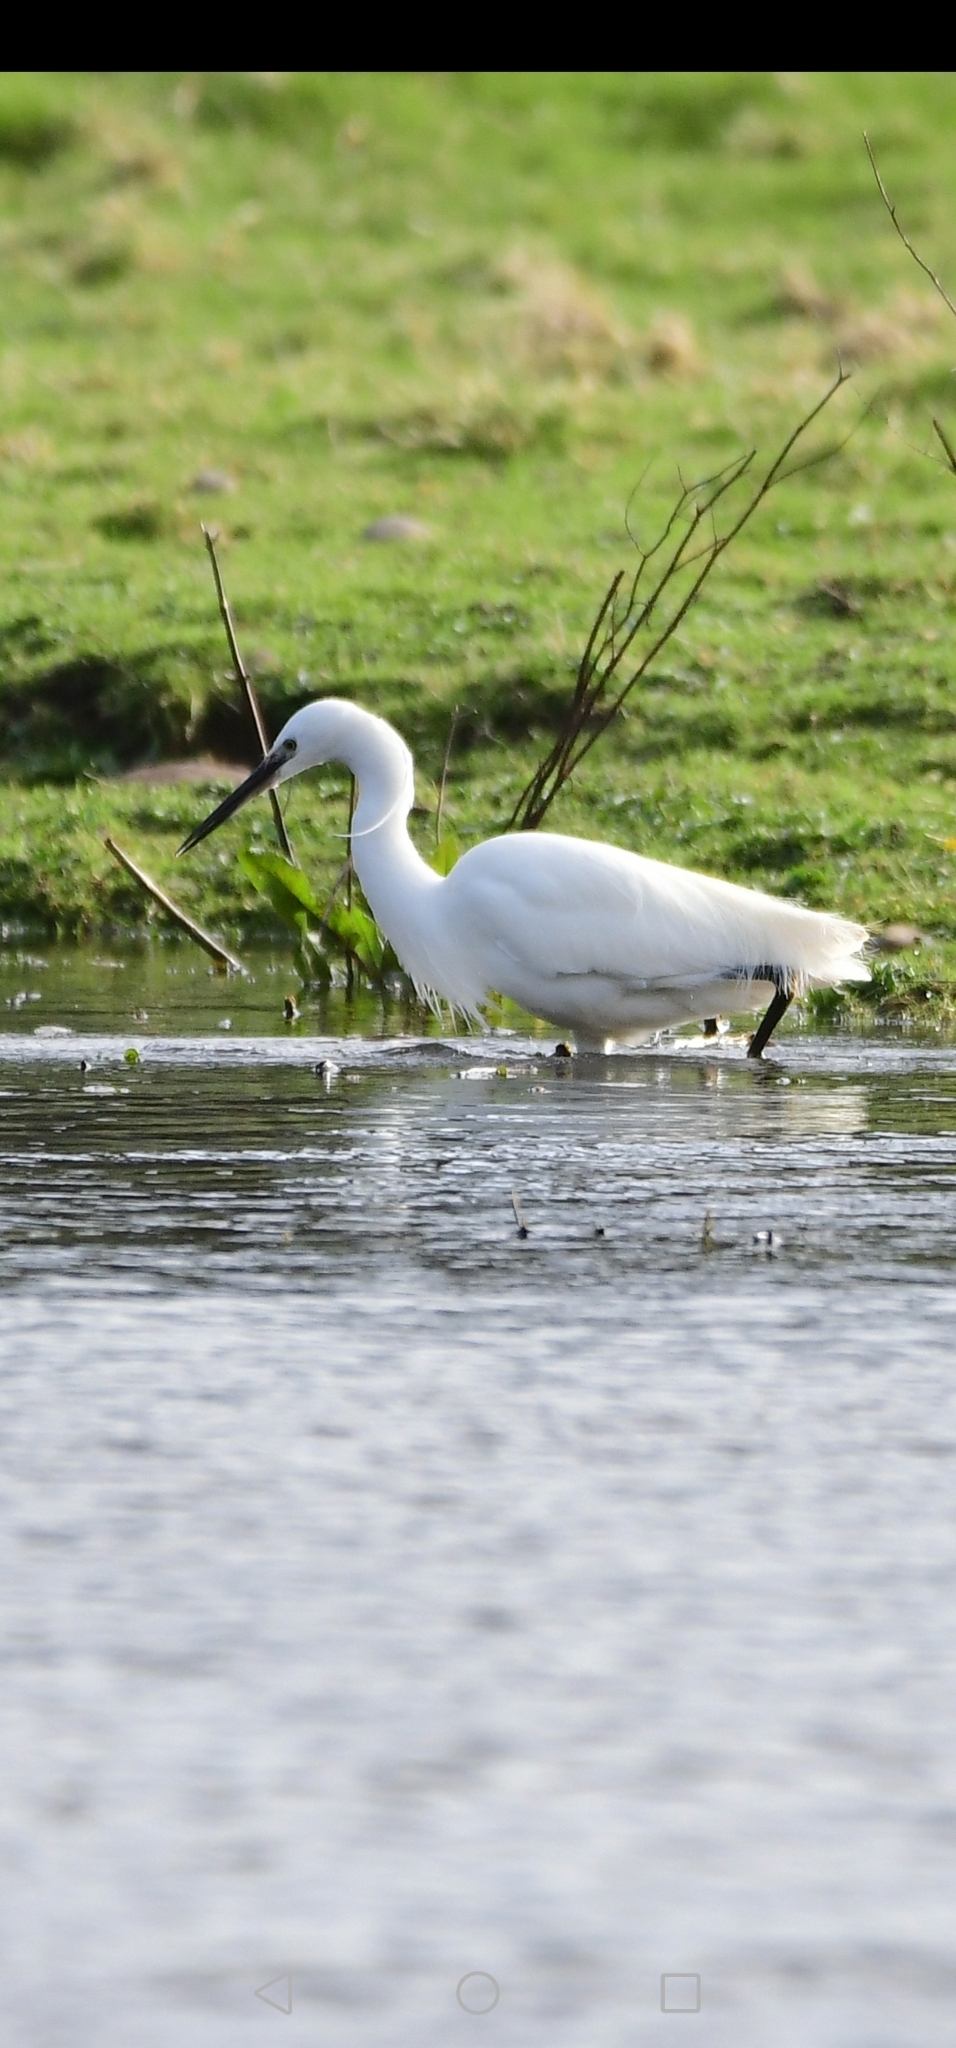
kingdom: Animalia
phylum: Chordata
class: Aves
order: Pelecaniformes
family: Ardeidae
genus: Egretta
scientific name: Egretta garzetta
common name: Little egret
